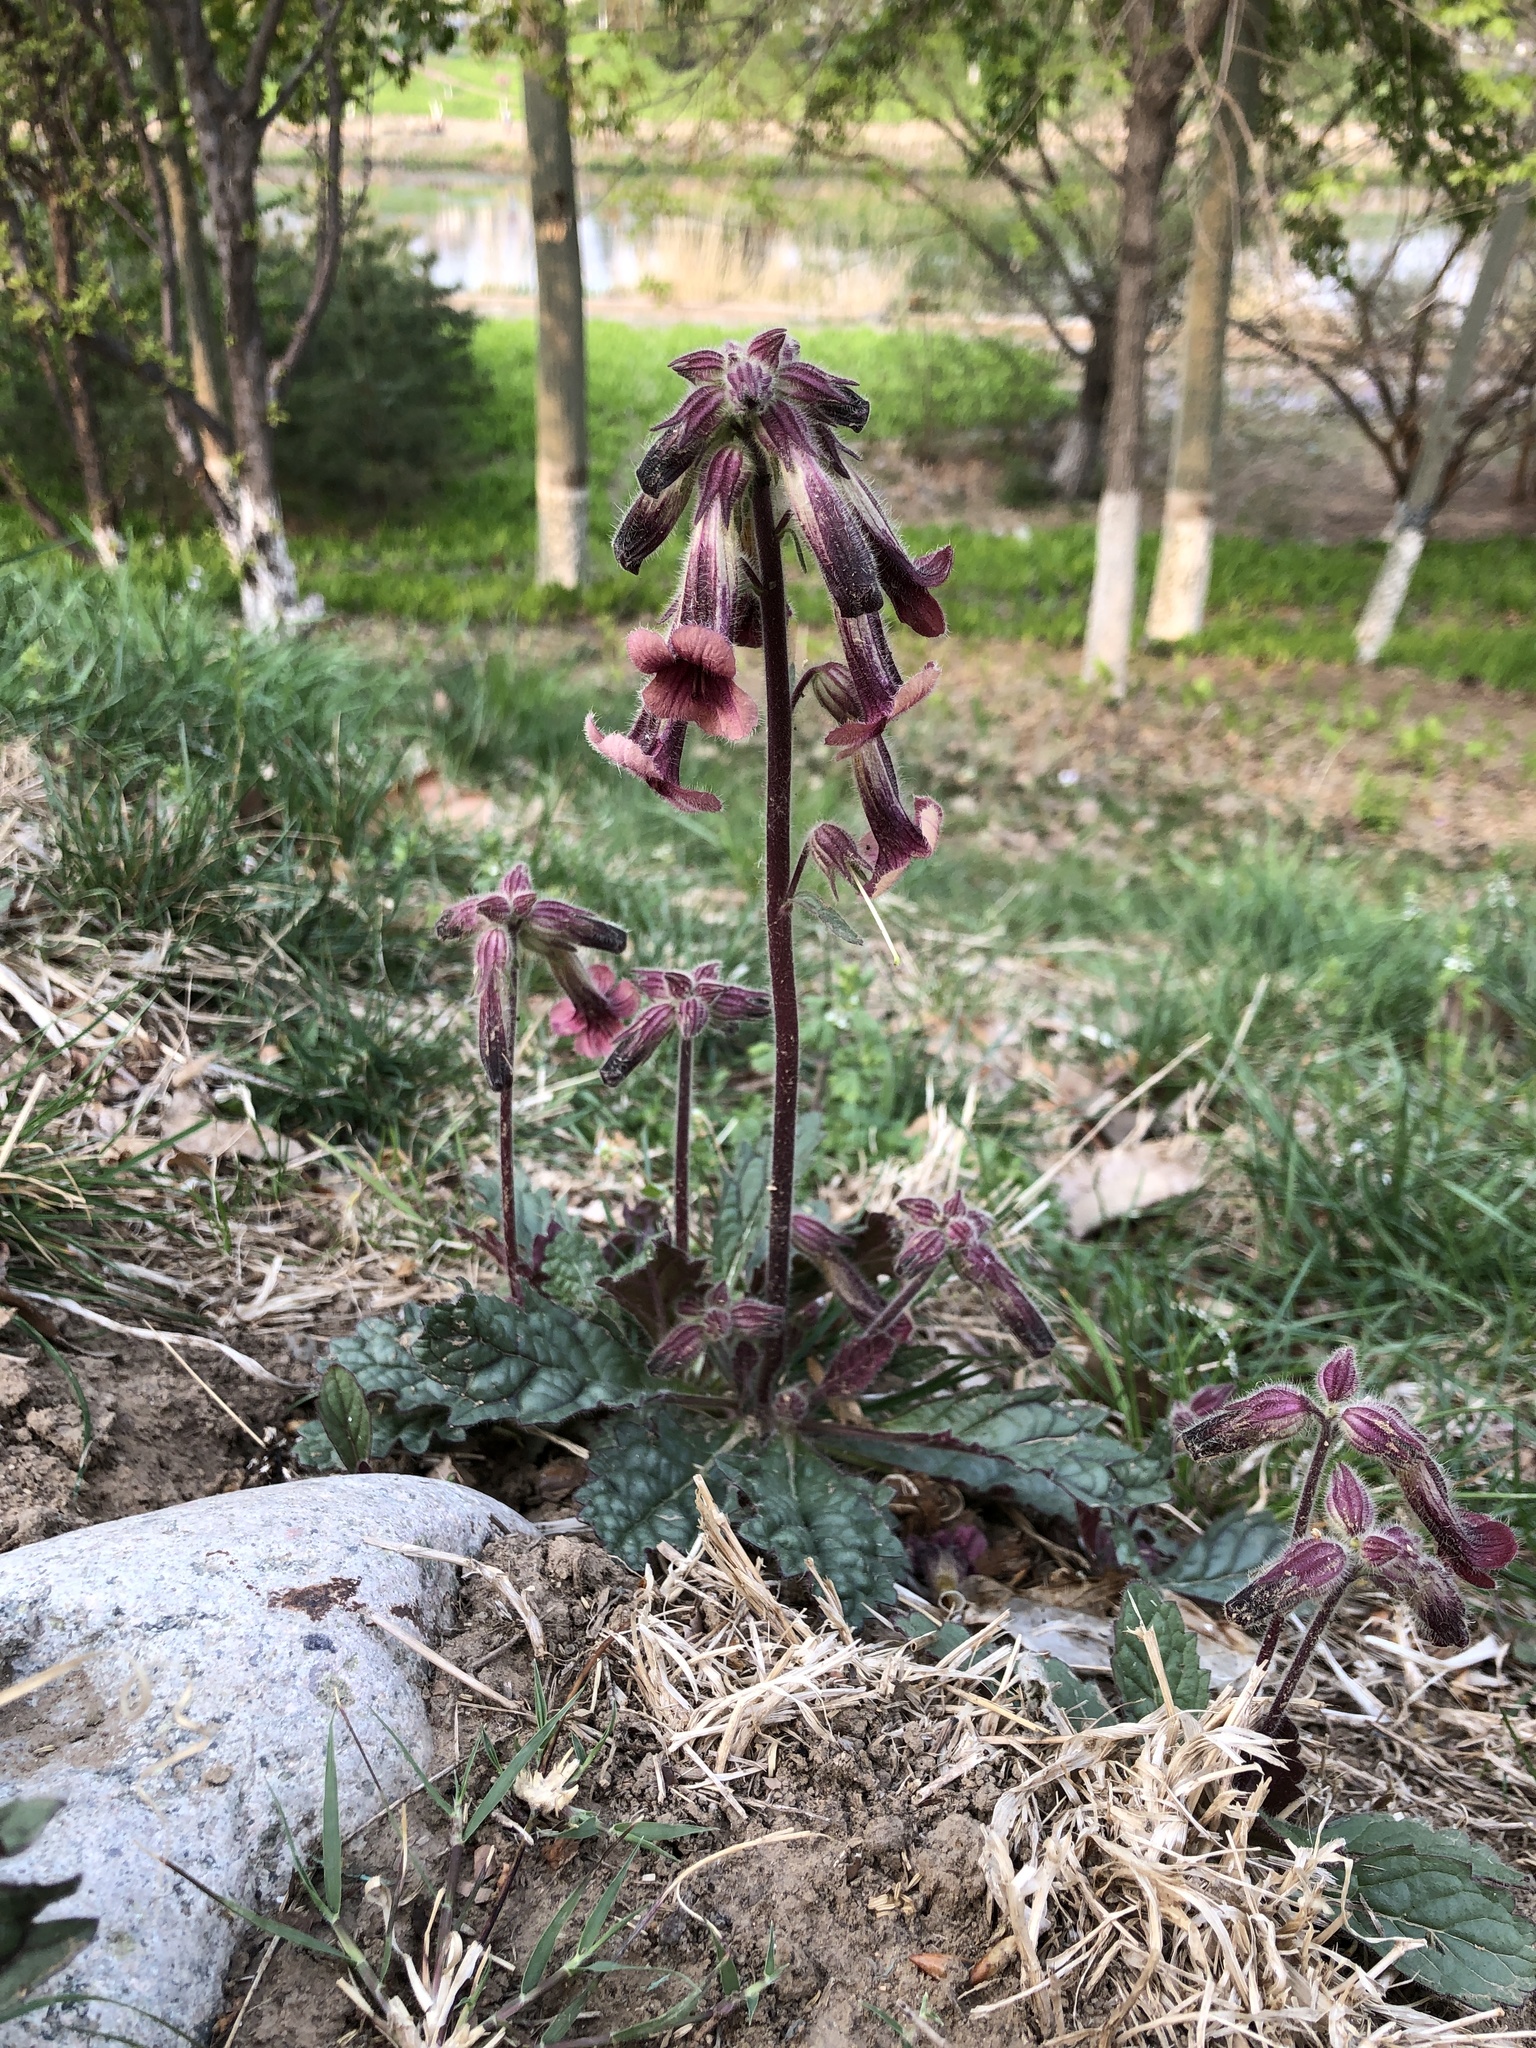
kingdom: Plantae
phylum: Tracheophyta
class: Magnoliopsida
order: Lamiales
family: Rehmanniaceae
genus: Rehmannia
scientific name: Rehmannia glutinosa
